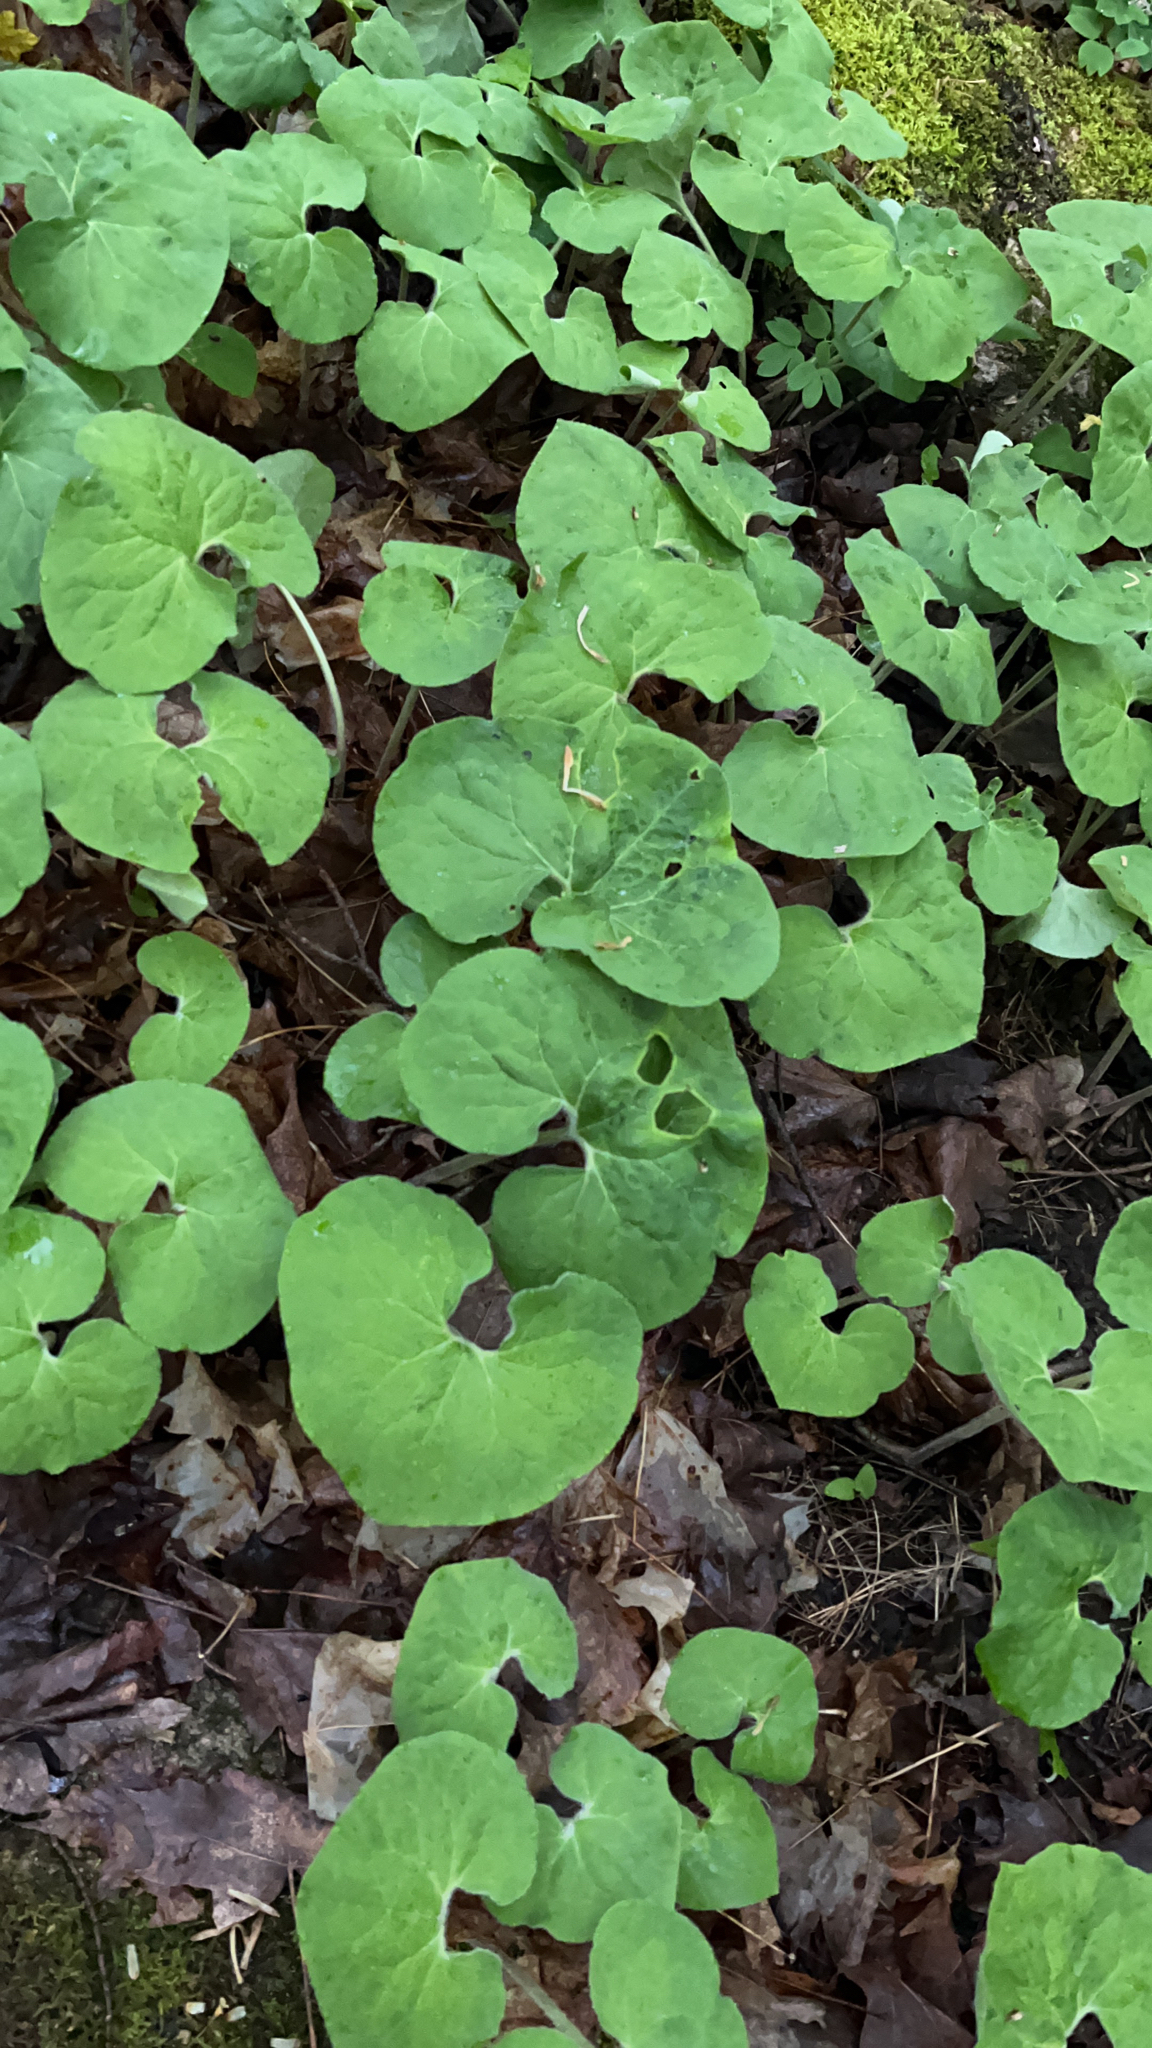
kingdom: Plantae
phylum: Tracheophyta
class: Magnoliopsida
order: Piperales
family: Aristolochiaceae
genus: Asarum
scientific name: Asarum canadense
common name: Wild ginger
